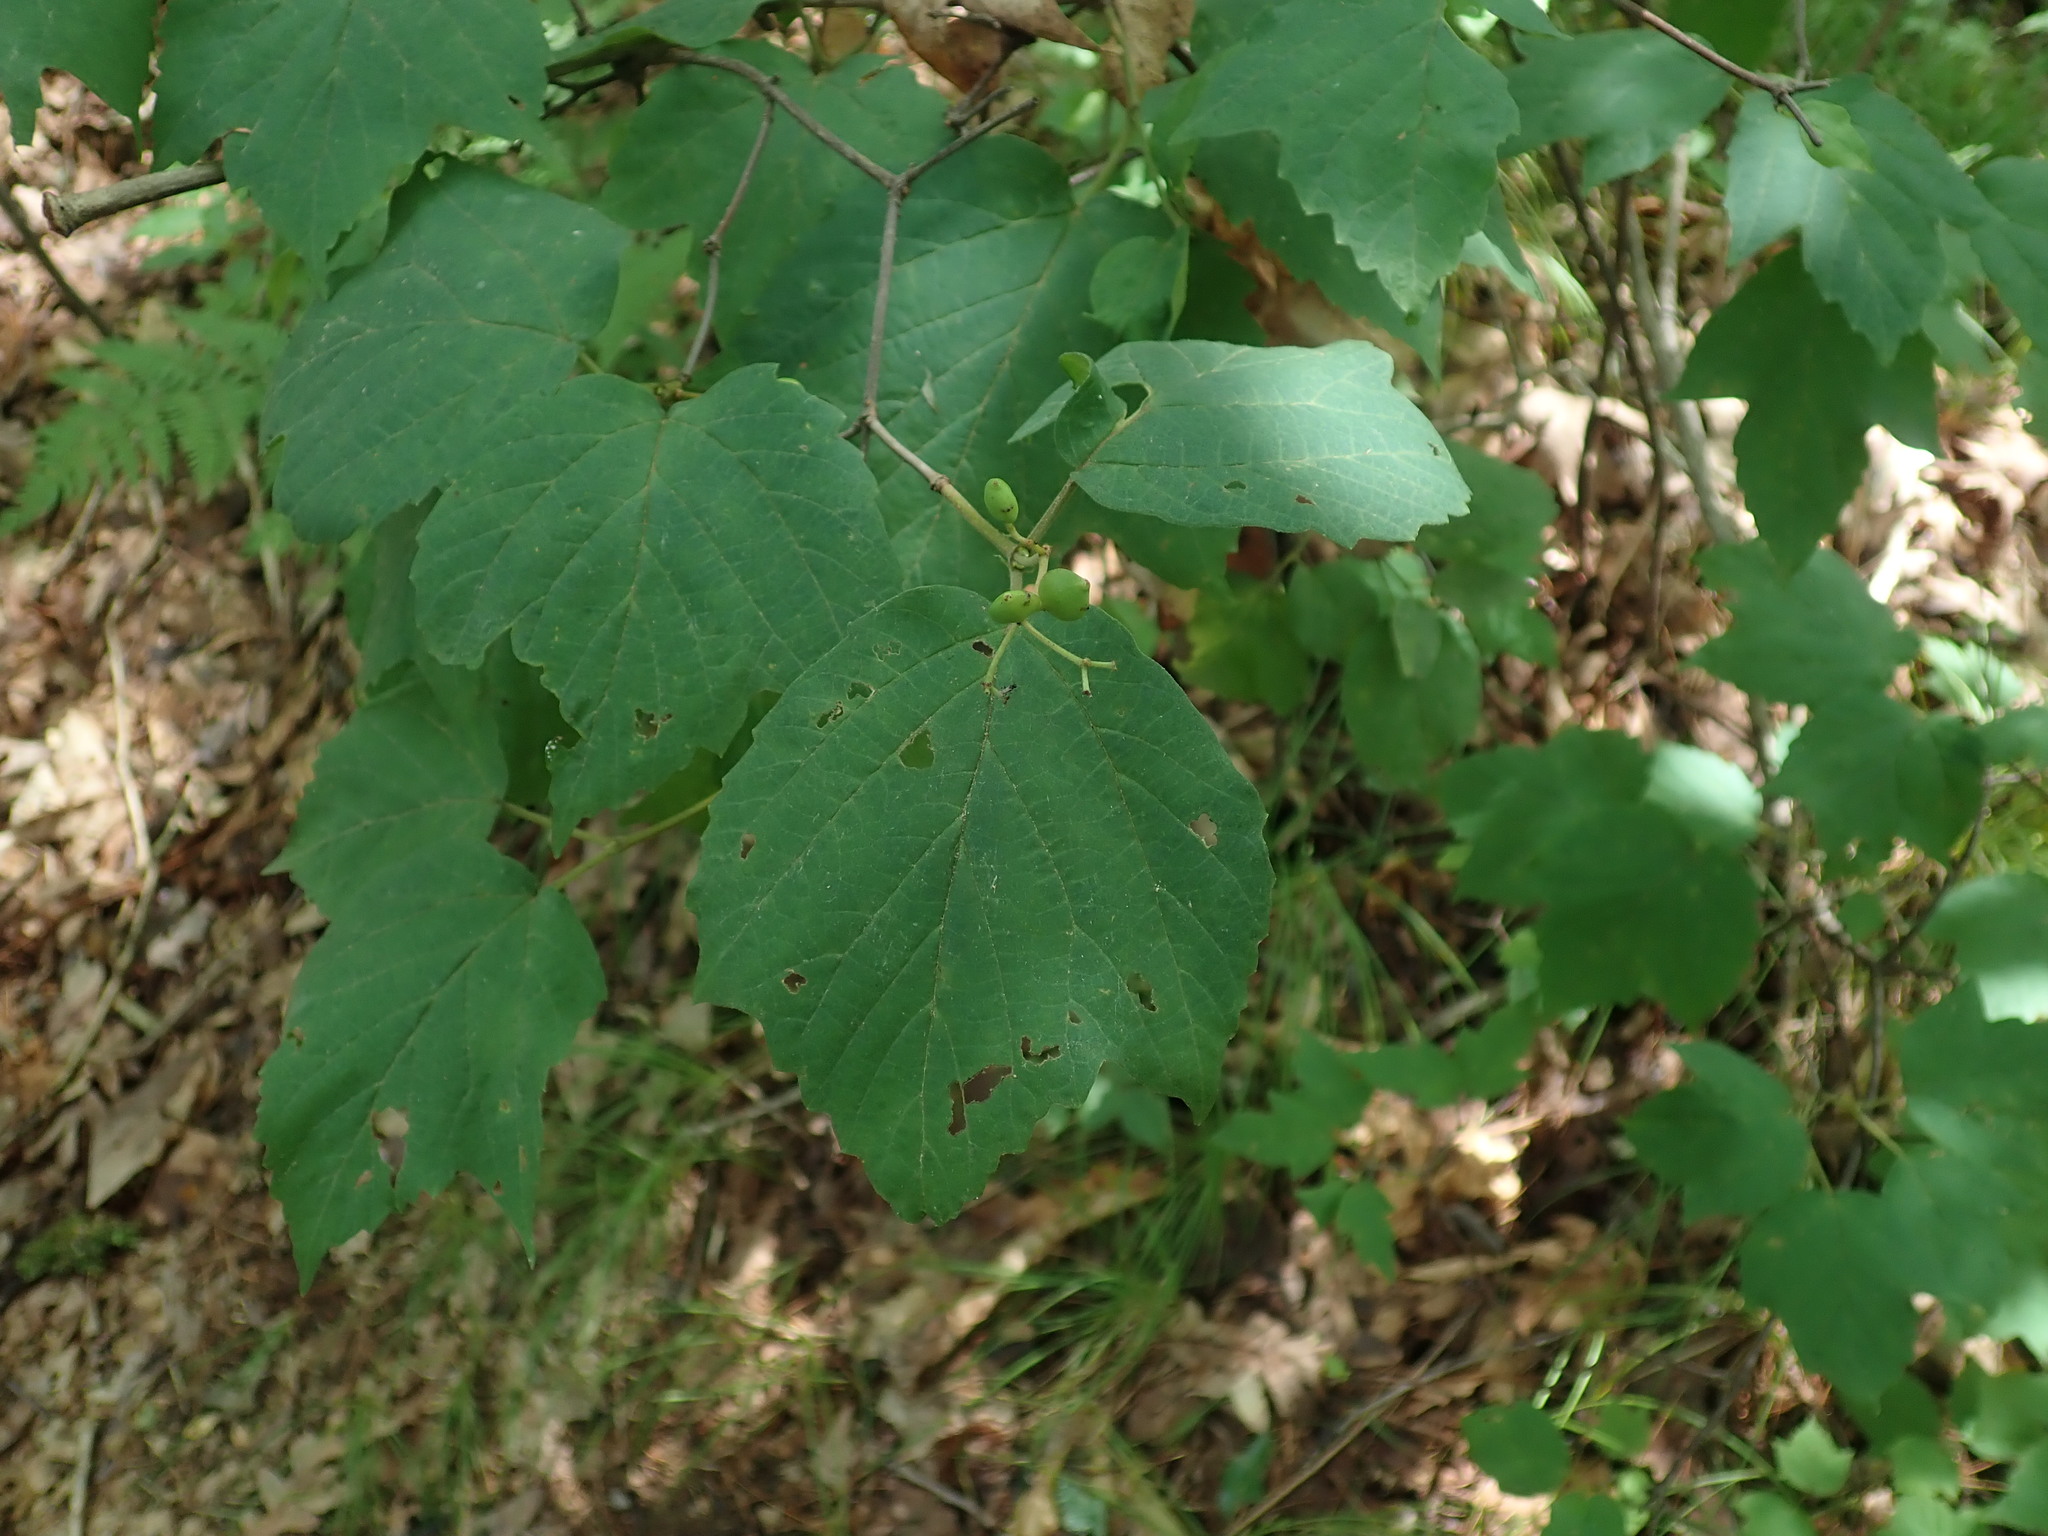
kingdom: Plantae
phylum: Tracheophyta
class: Magnoliopsida
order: Dipsacales
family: Viburnaceae
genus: Viburnum
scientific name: Viburnum acerifolium
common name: Dockmackie
